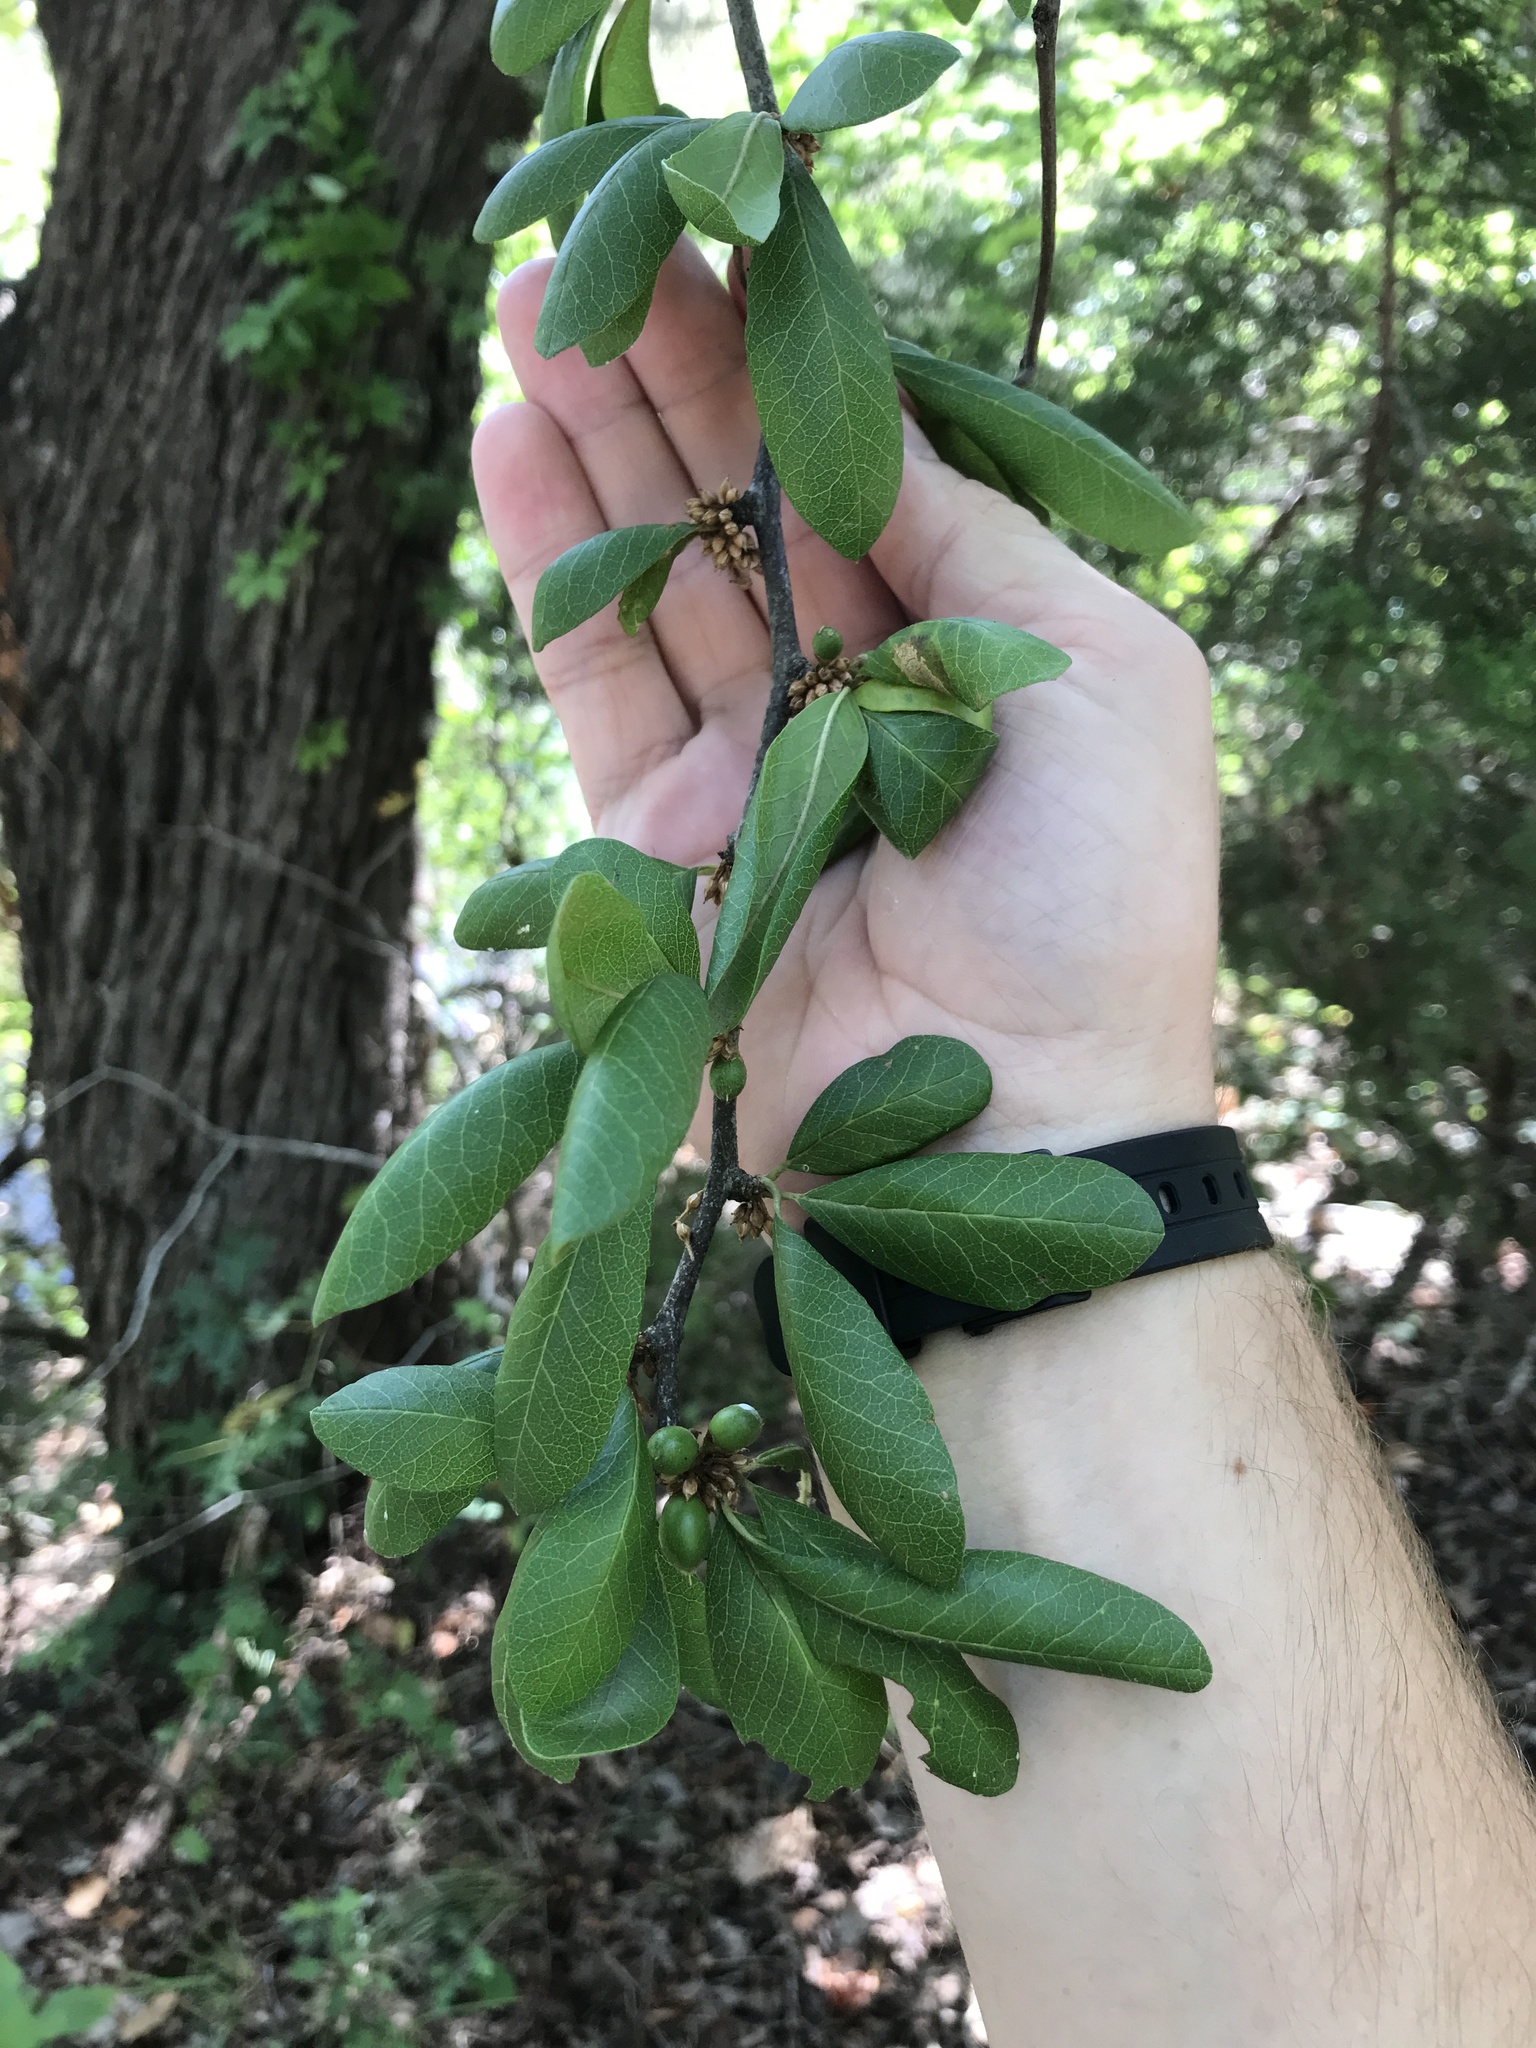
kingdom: Plantae
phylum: Tracheophyta
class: Magnoliopsida
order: Ericales
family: Sapotaceae
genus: Sideroxylon
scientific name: Sideroxylon lanuginosum
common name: Chittamwood
